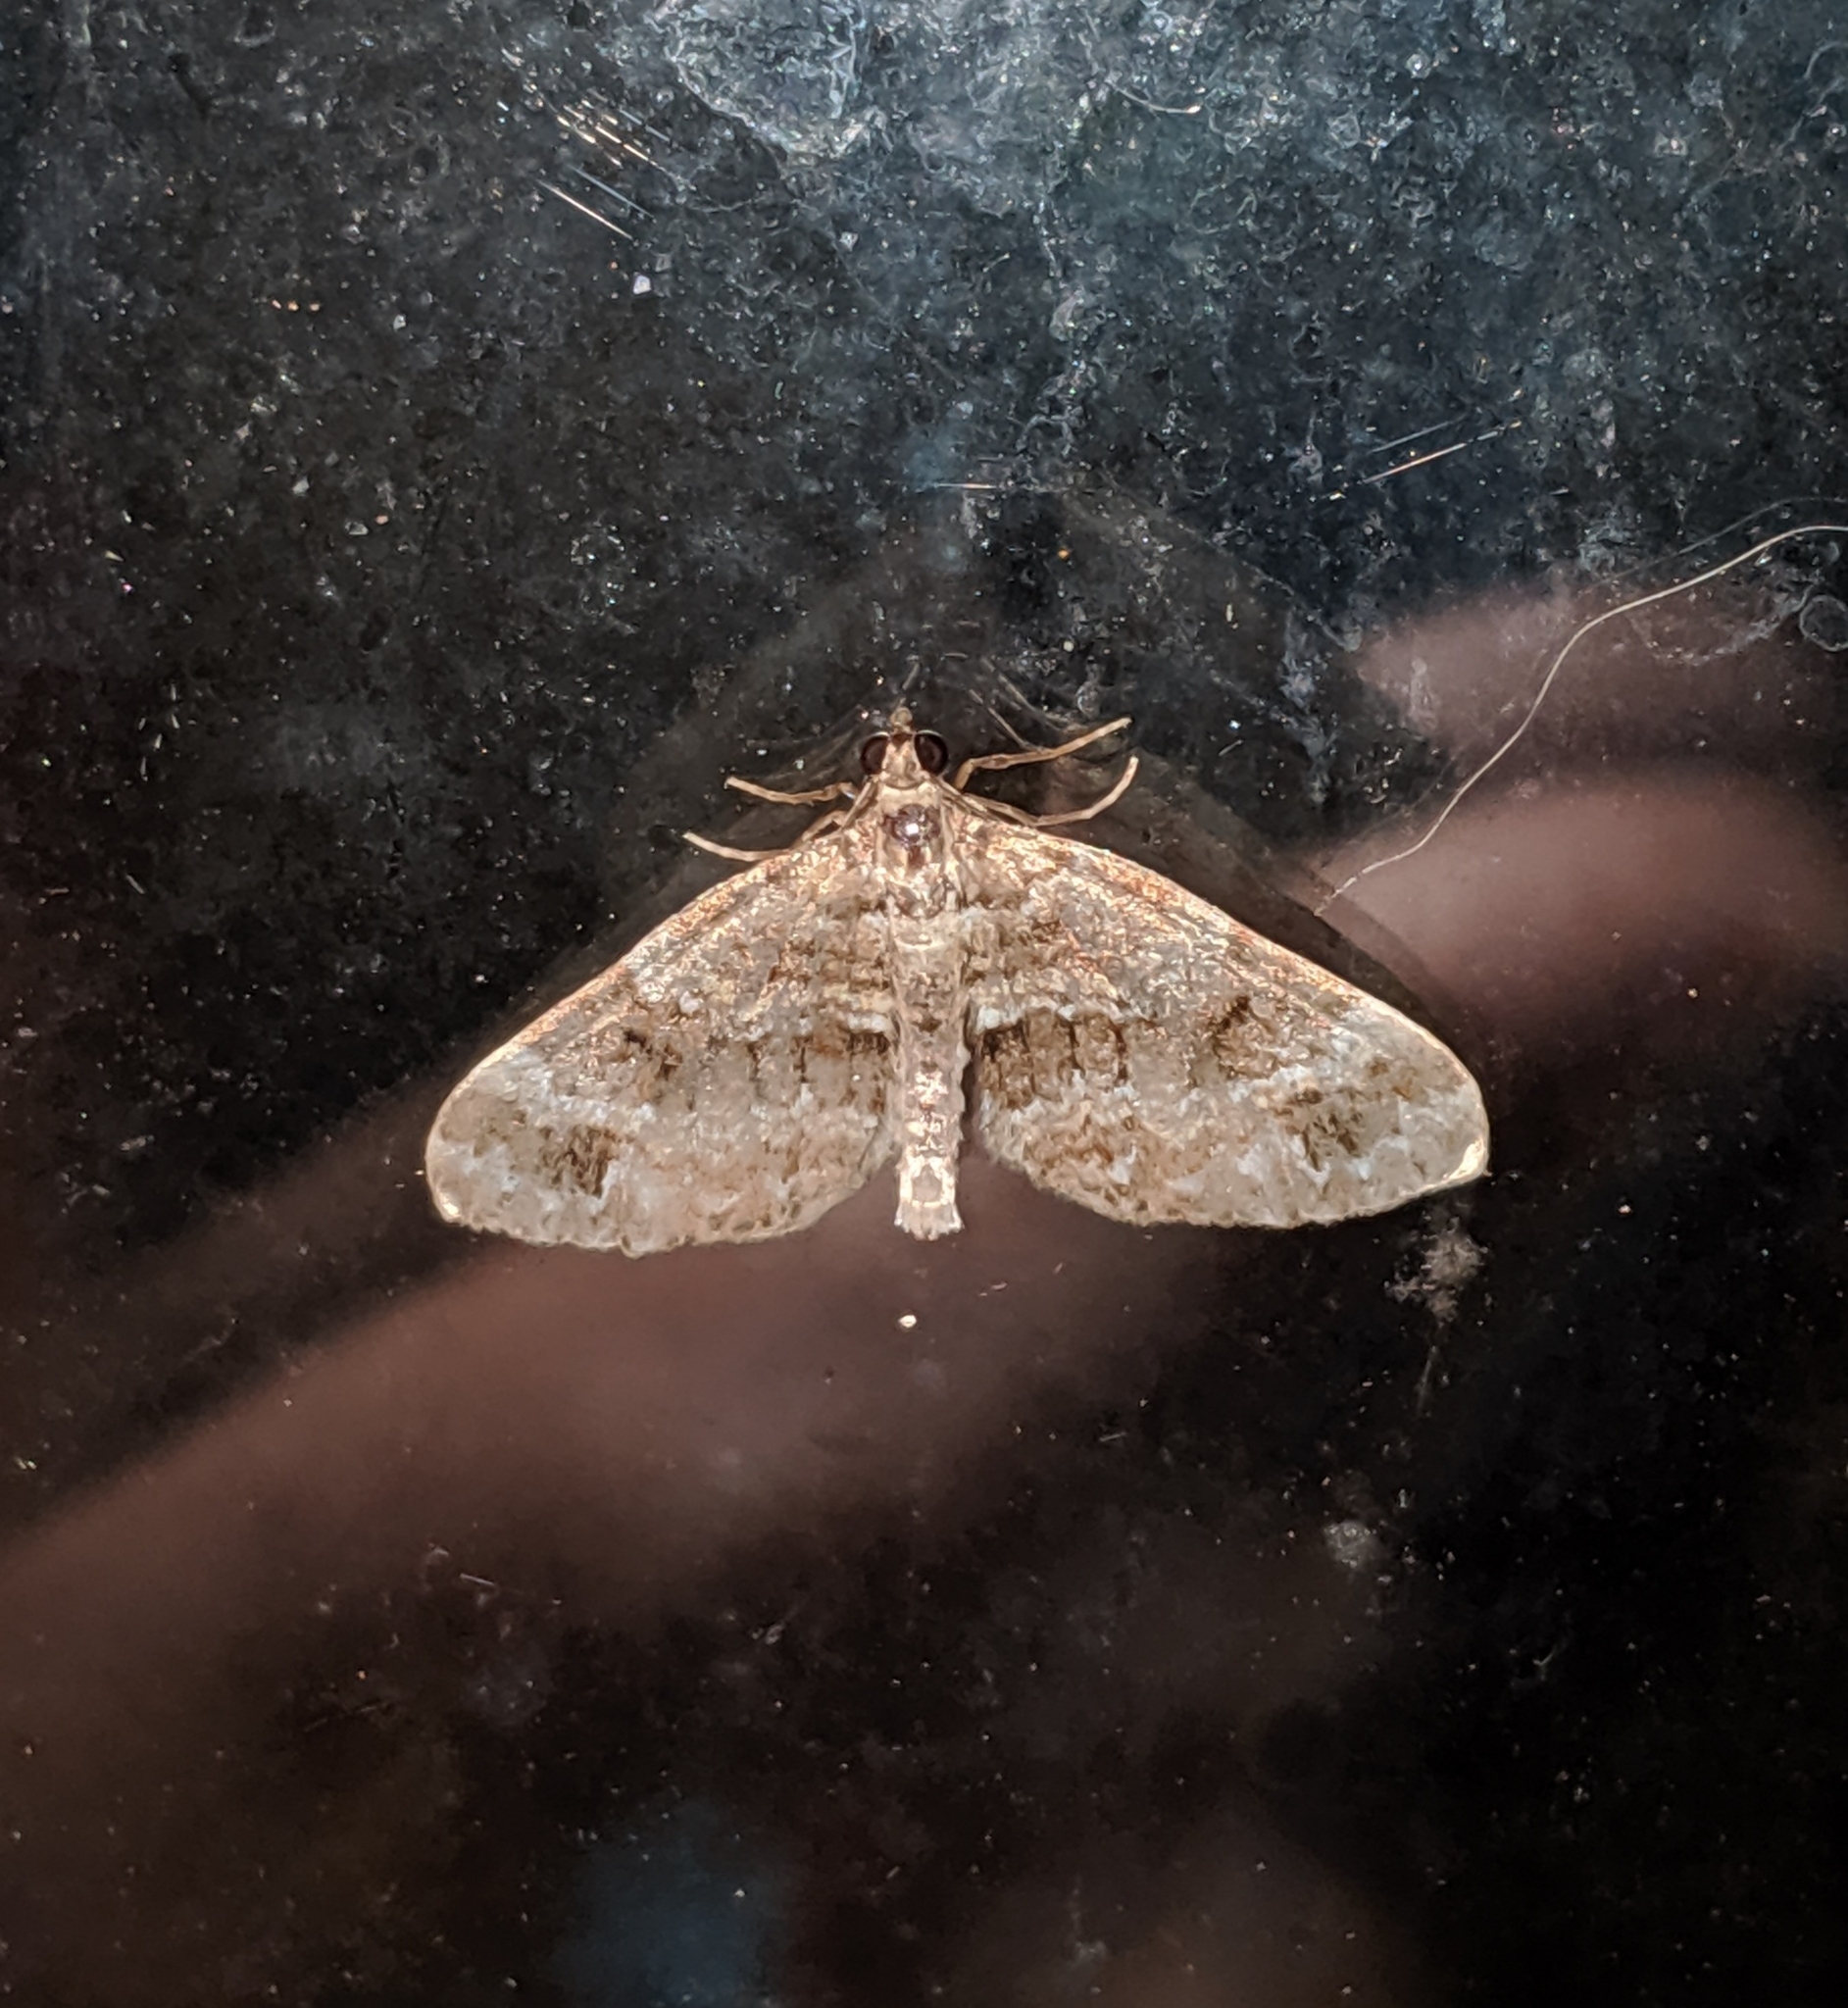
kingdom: Animalia
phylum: Arthropoda
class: Insecta
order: Lepidoptera
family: Geometridae
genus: Martania
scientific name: Martania
